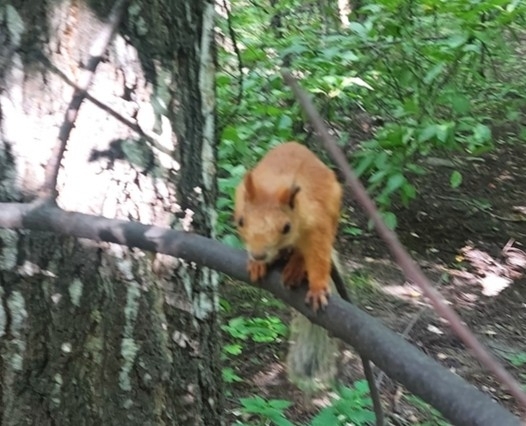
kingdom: Animalia
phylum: Chordata
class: Mammalia
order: Rodentia
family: Sciuridae
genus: Sciurus
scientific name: Sciurus vulgaris
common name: Eurasian red squirrel
